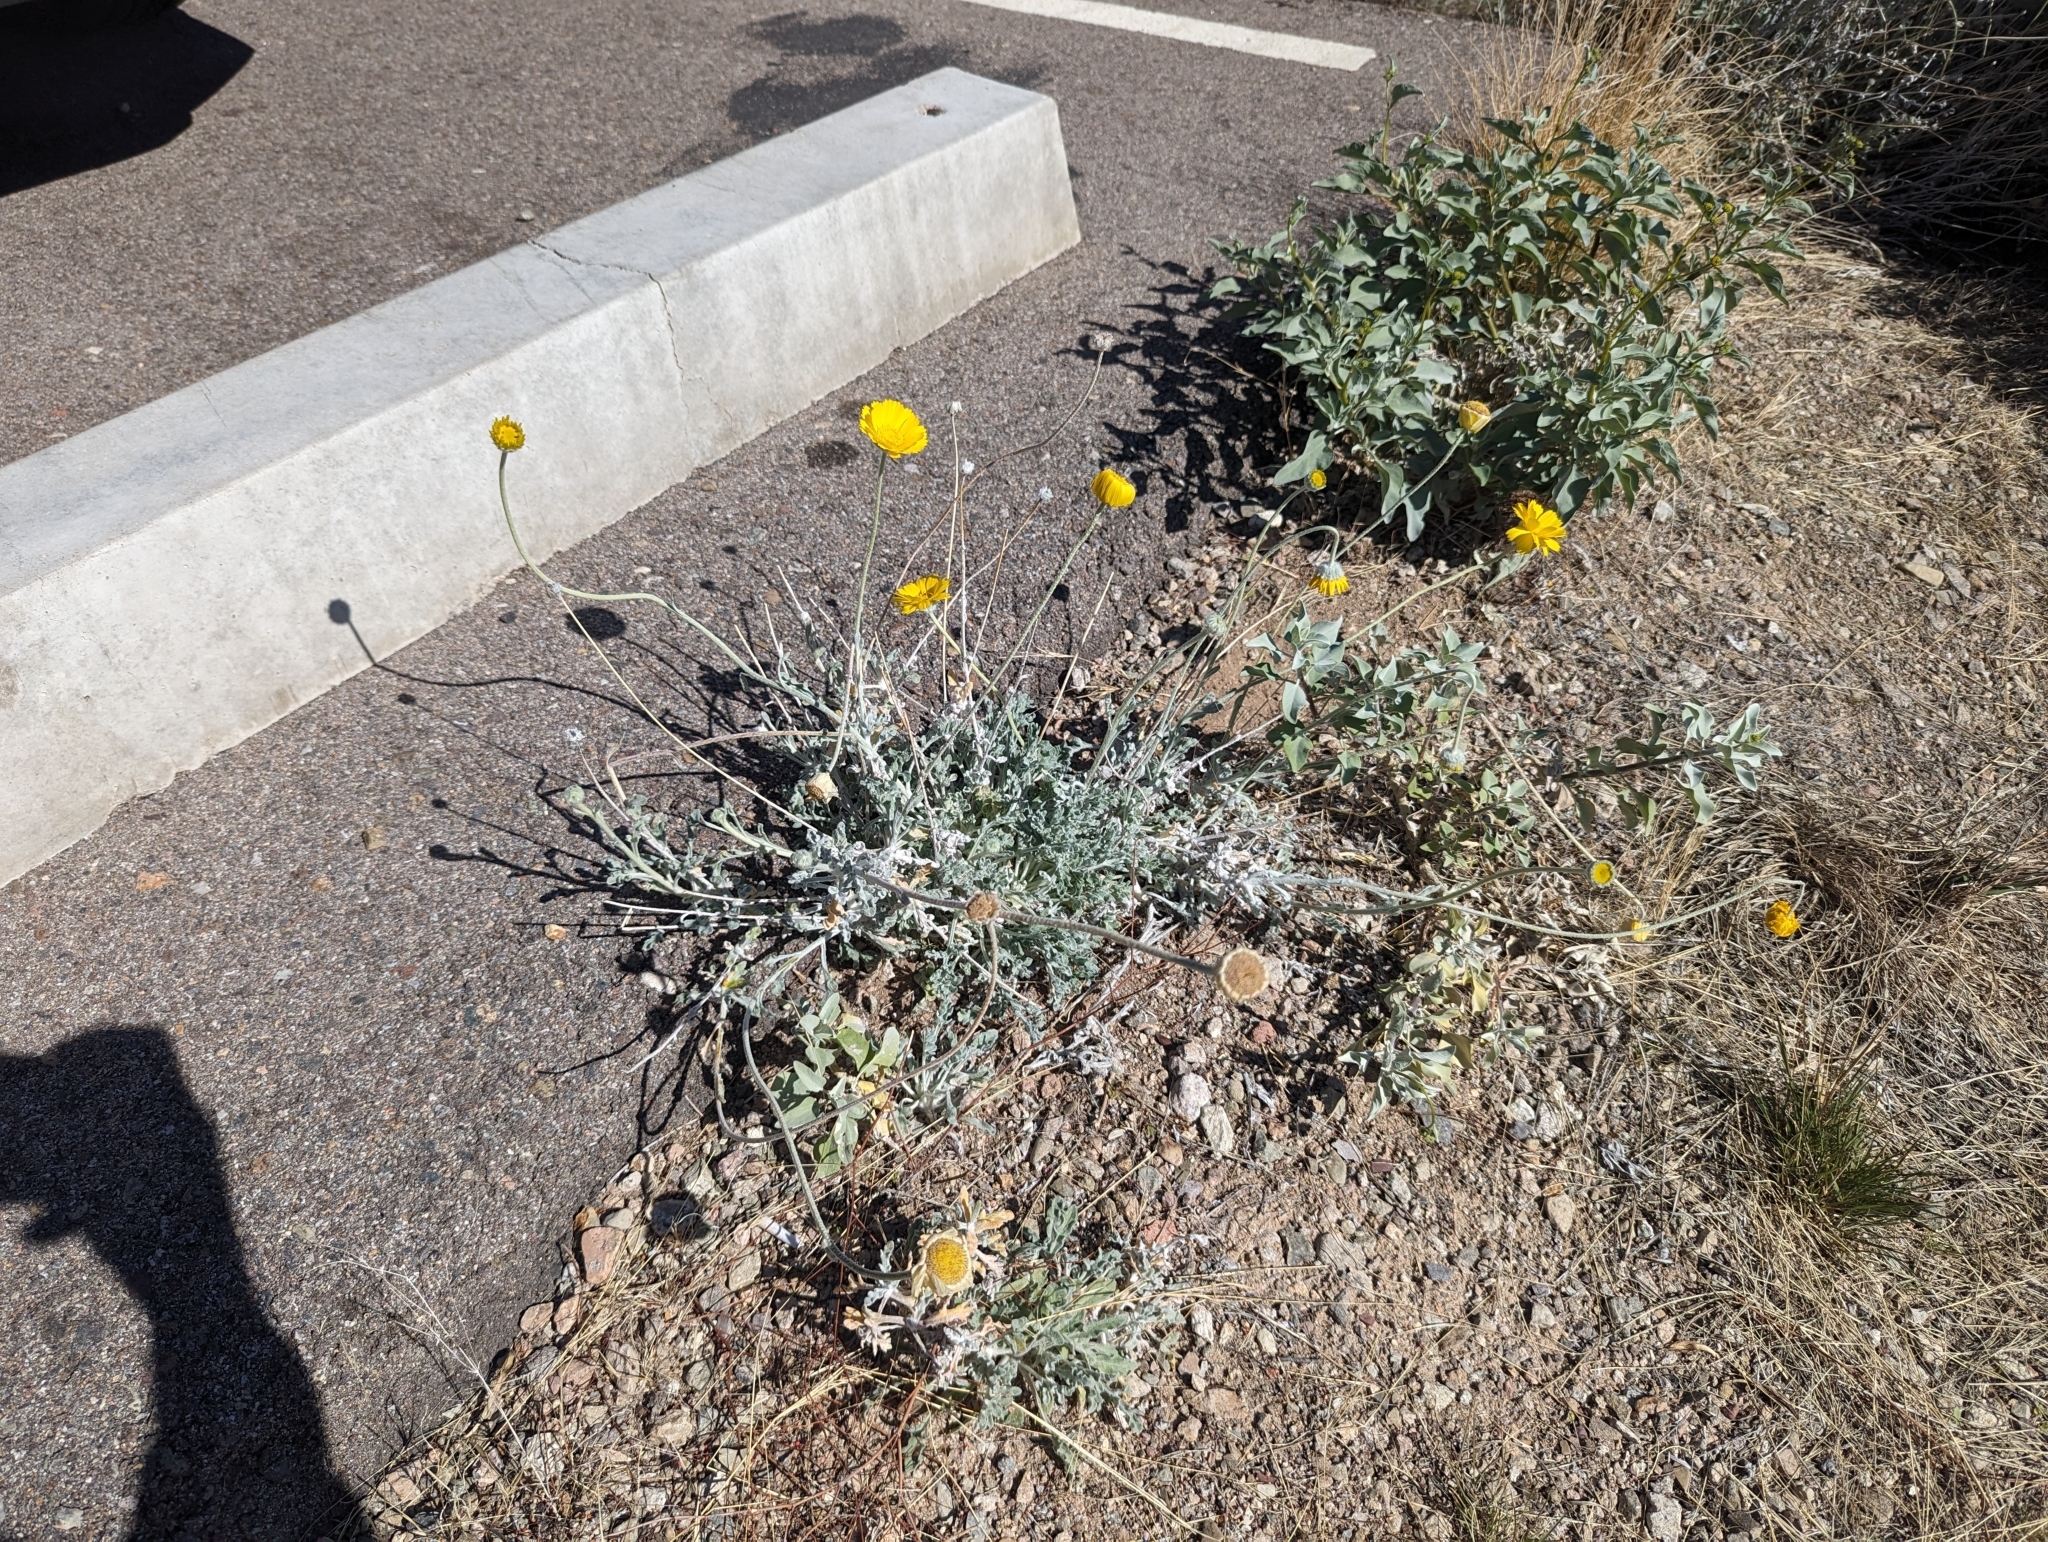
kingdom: Plantae
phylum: Tracheophyta
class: Magnoliopsida
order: Asterales
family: Asteraceae
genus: Baileya
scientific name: Baileya multiradiata
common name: Desert-marigold
